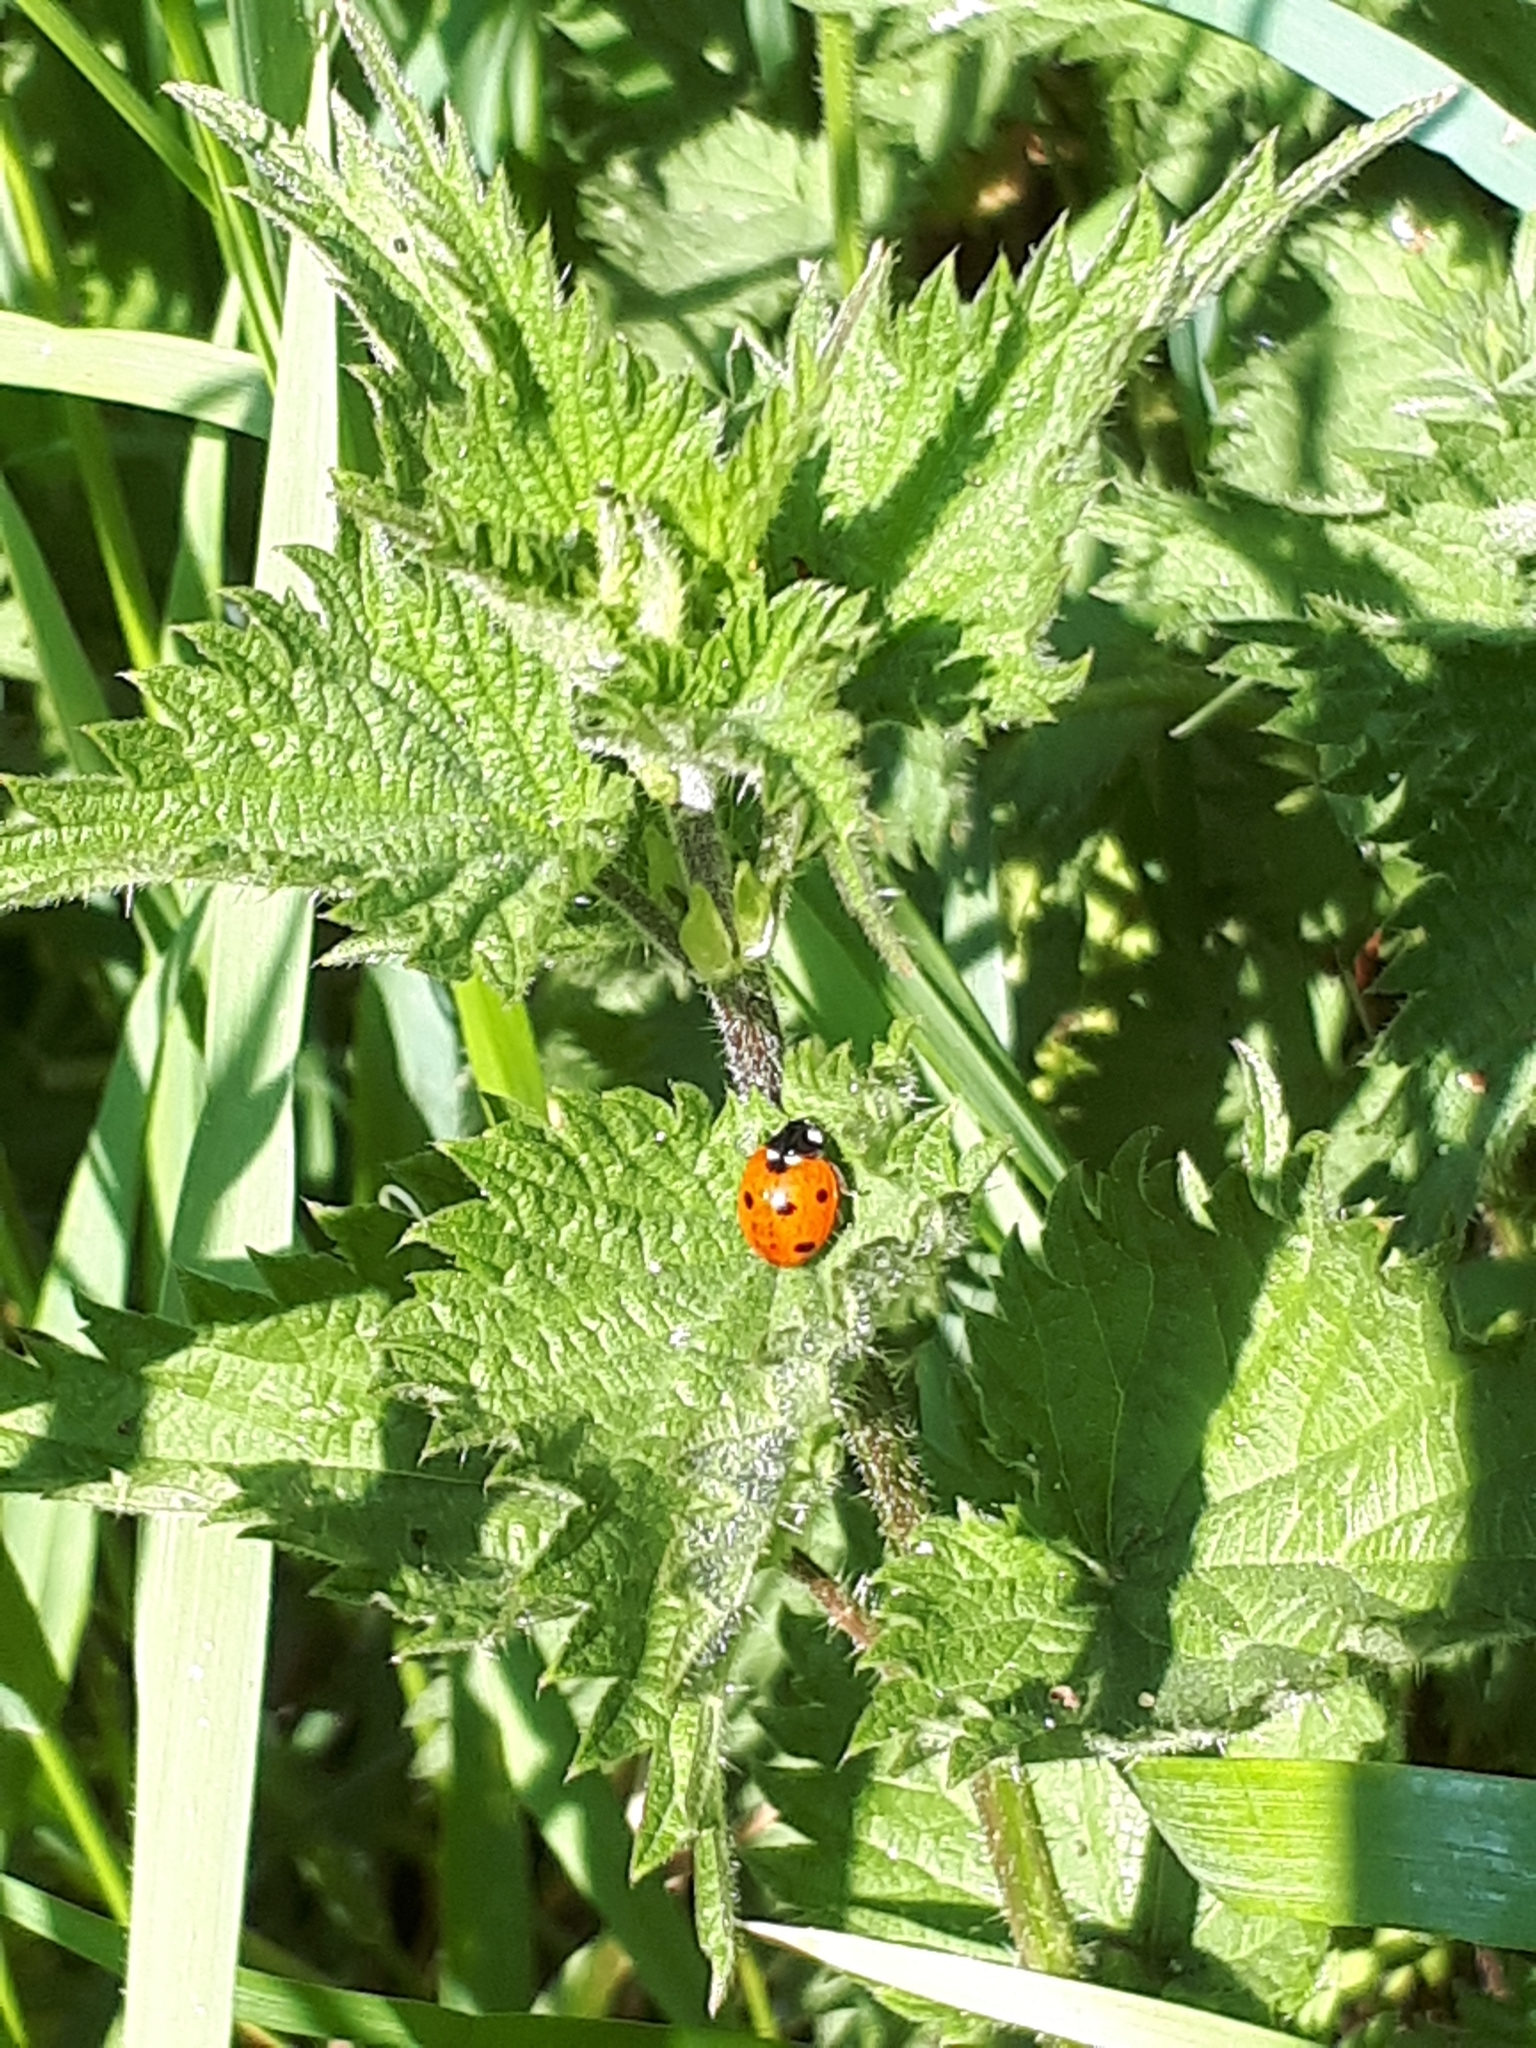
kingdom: Animalia
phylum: Arthropoda
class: Insecta
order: Coleoptera
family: Coccinellidae
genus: Coccinella
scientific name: Coccinella septempunctata
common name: Sevenspotted lady beetle
